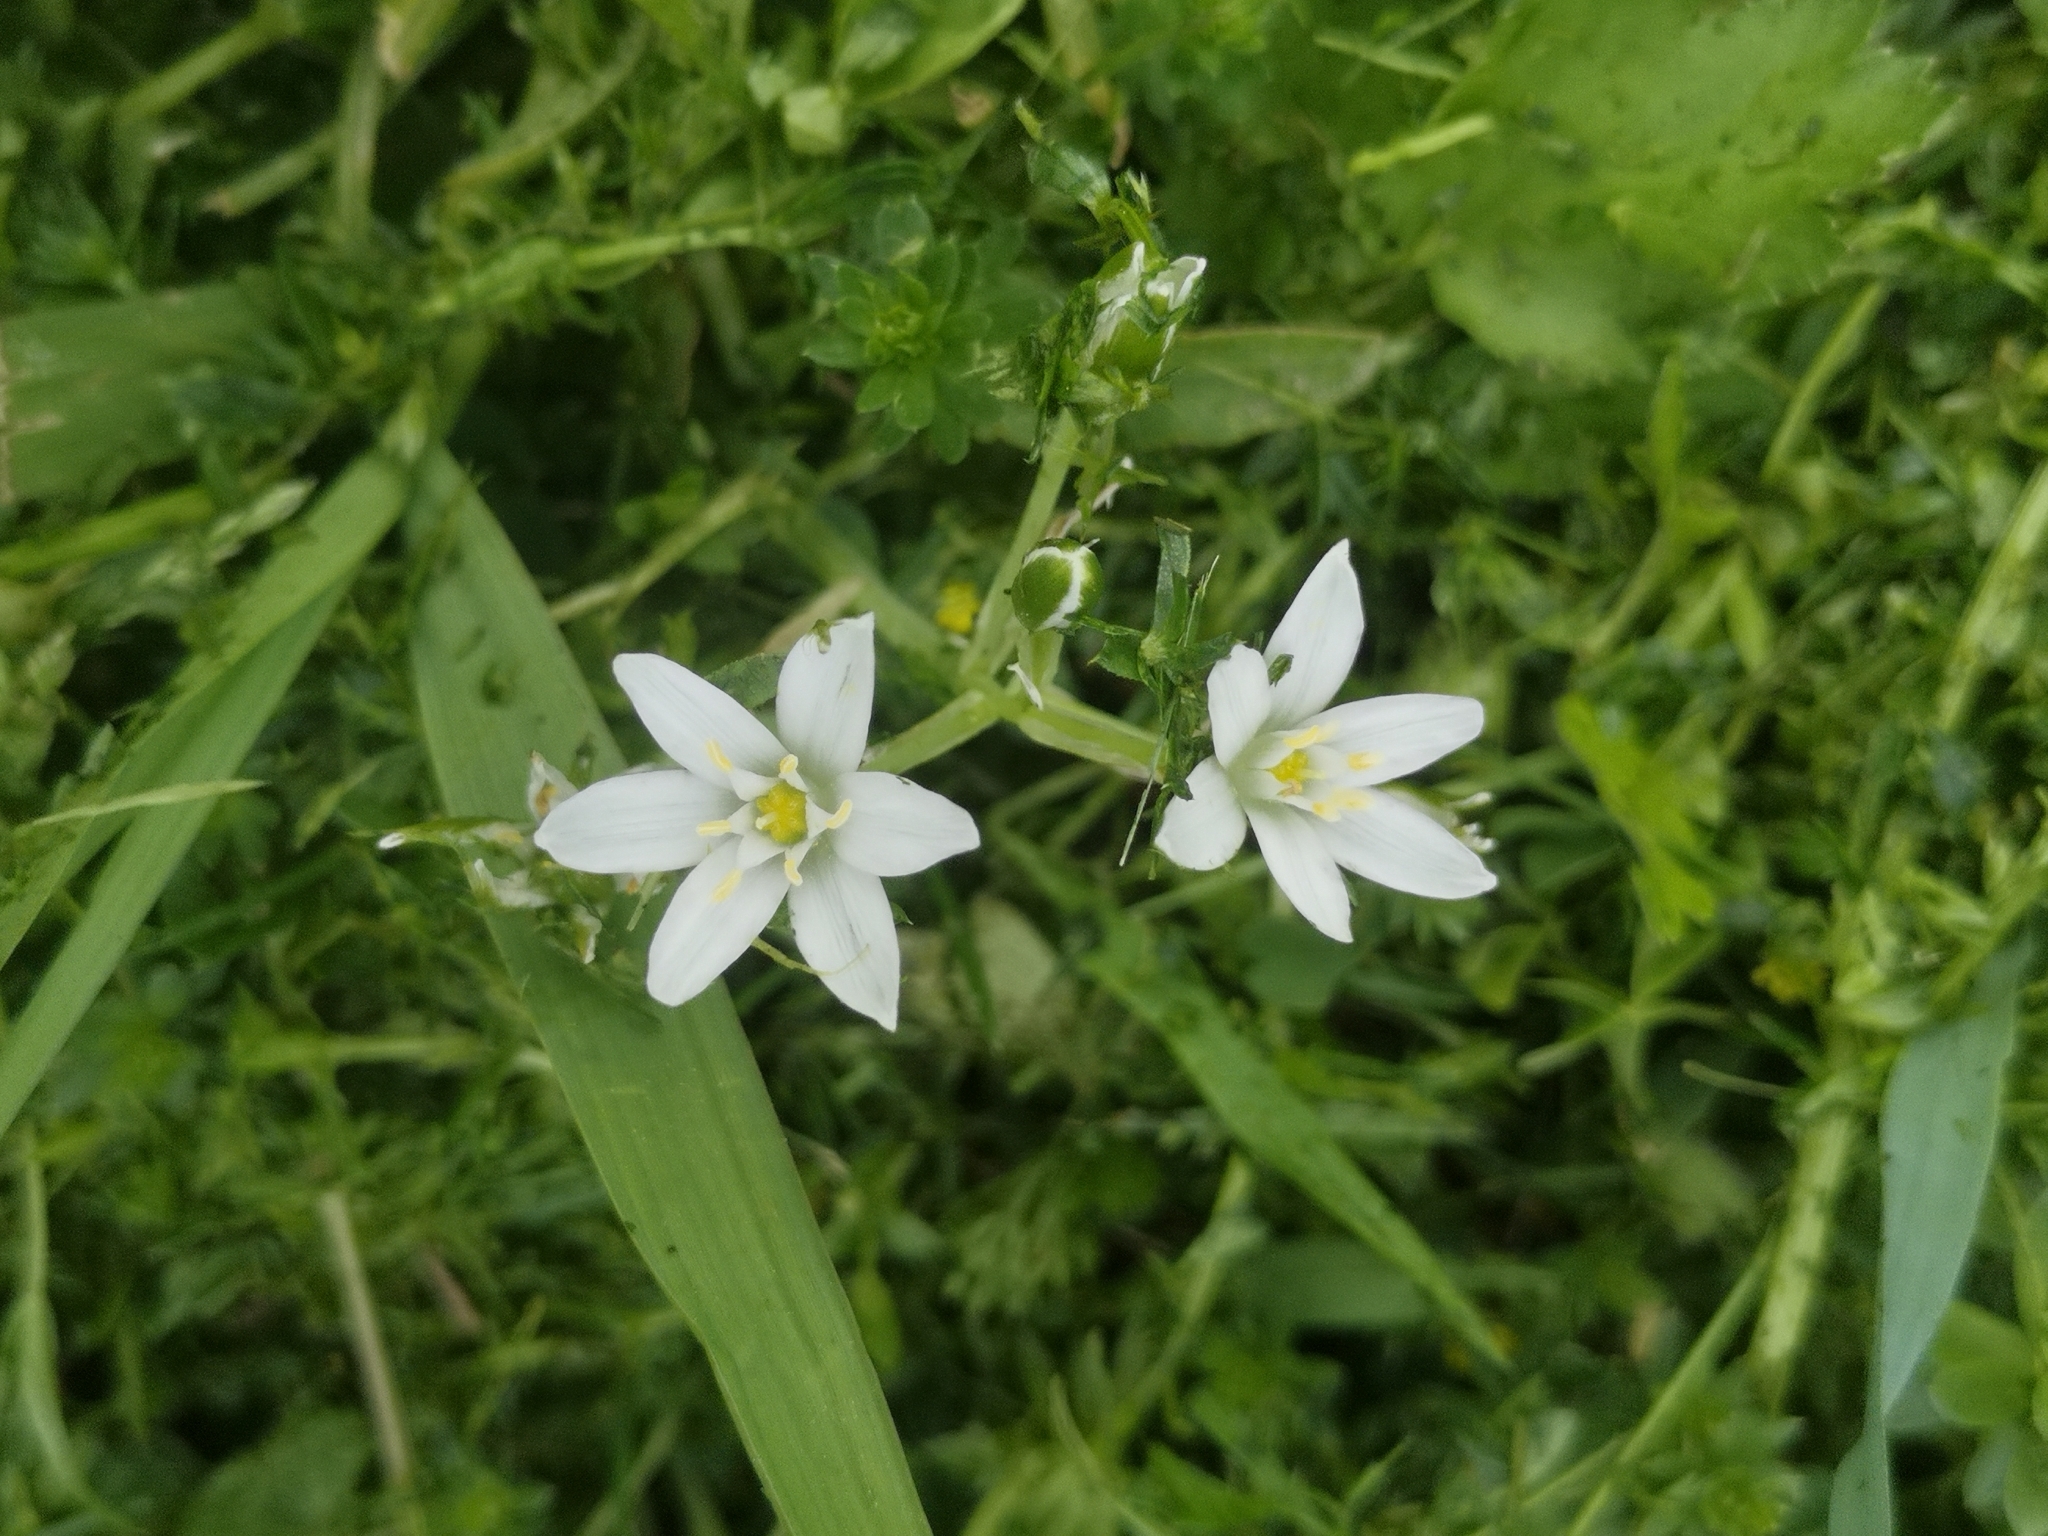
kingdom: Plantae
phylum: Tracheophyta
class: Liliopsida
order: Asparagales
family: Asparagaceae
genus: Ornithogalum
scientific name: Ornithogalum umbellatum
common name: Garden star-of-bethlehem
